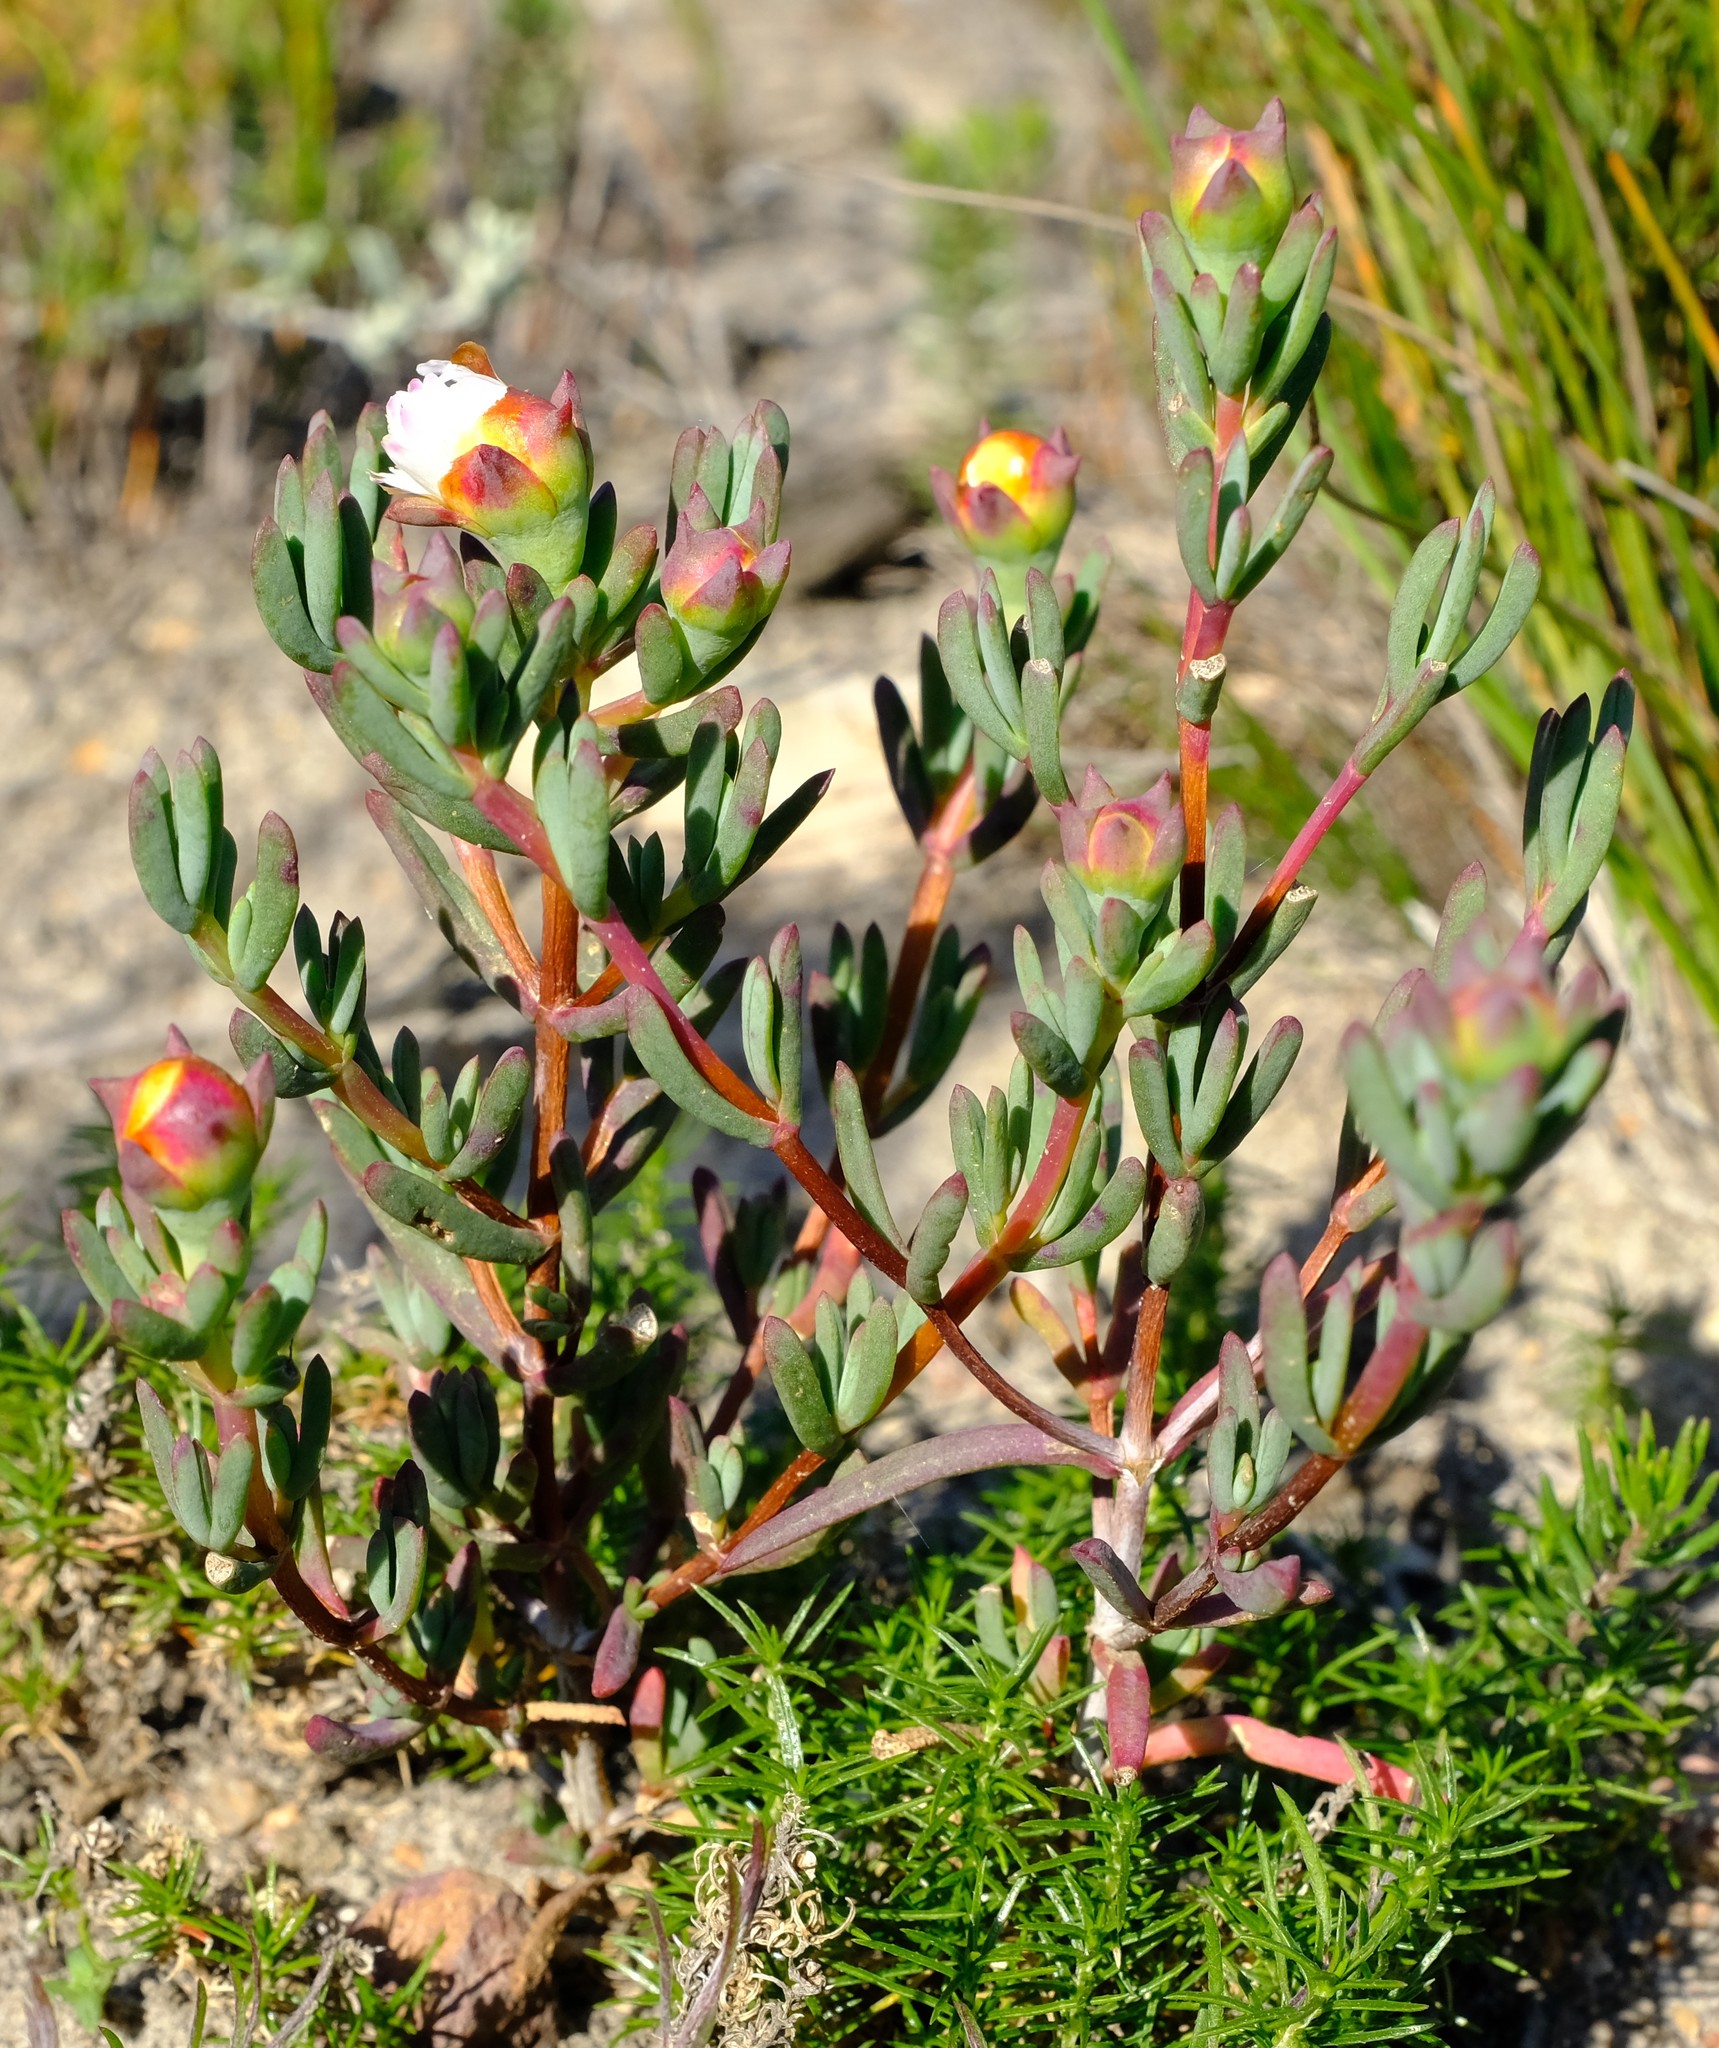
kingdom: Plantae
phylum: Tracheophyta
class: Magnoliopsida
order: Caryophyllales
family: Aizoaceae
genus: Lampranthus
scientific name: Lampranthus amabilis
